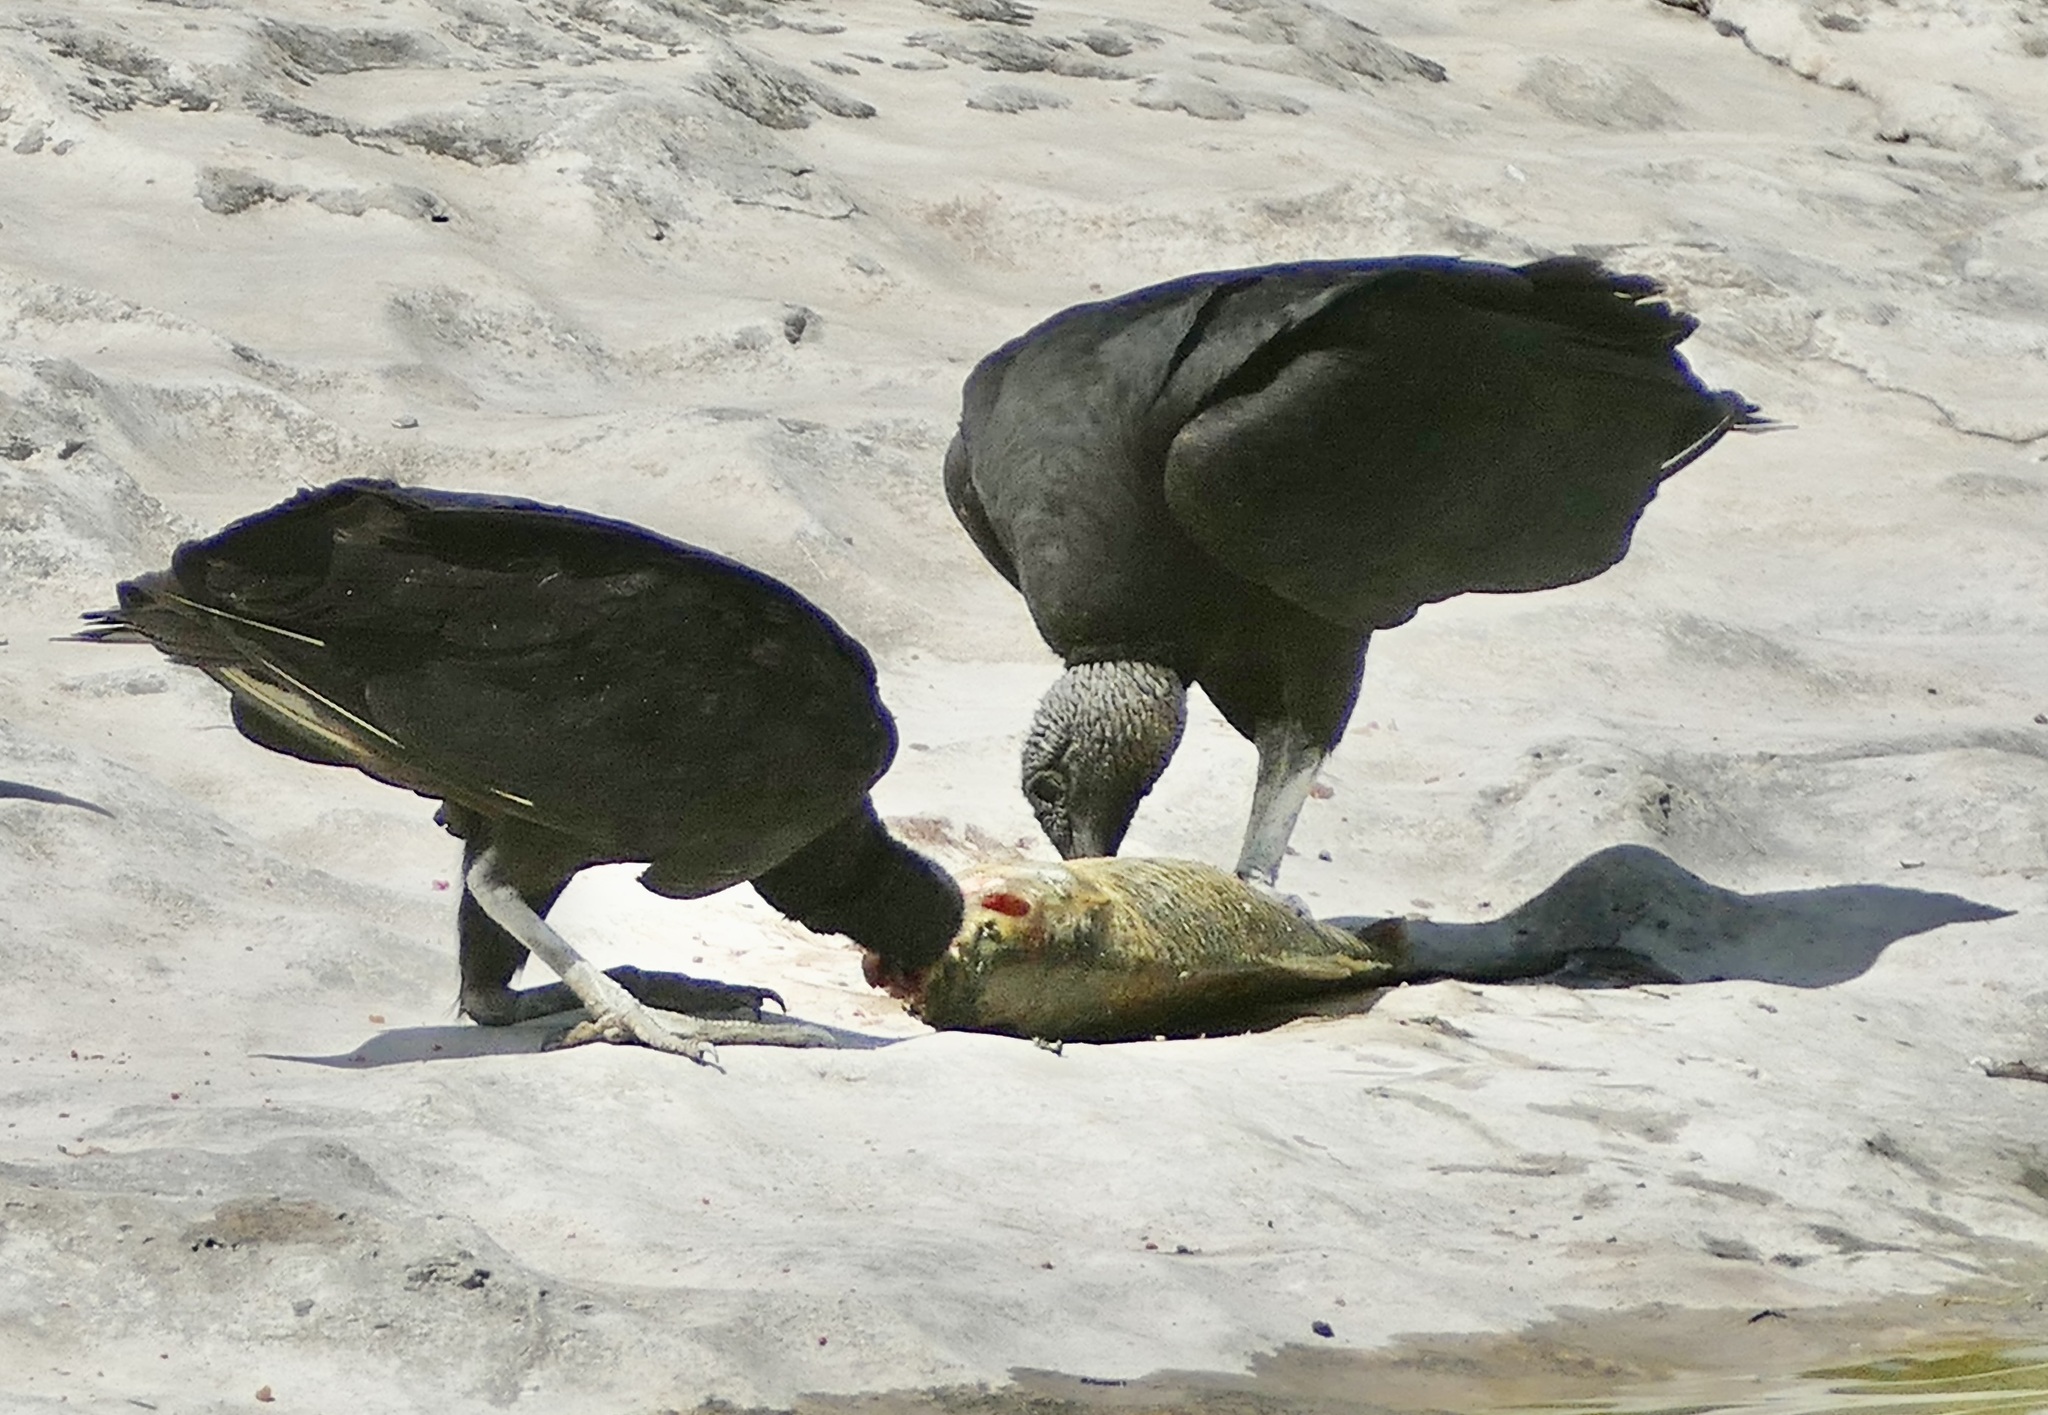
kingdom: Animalia
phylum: Chordata
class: Aves
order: Accipitriformes
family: Cathartidae
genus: Coragyps
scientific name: Coragyps atratus
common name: Black vulture
